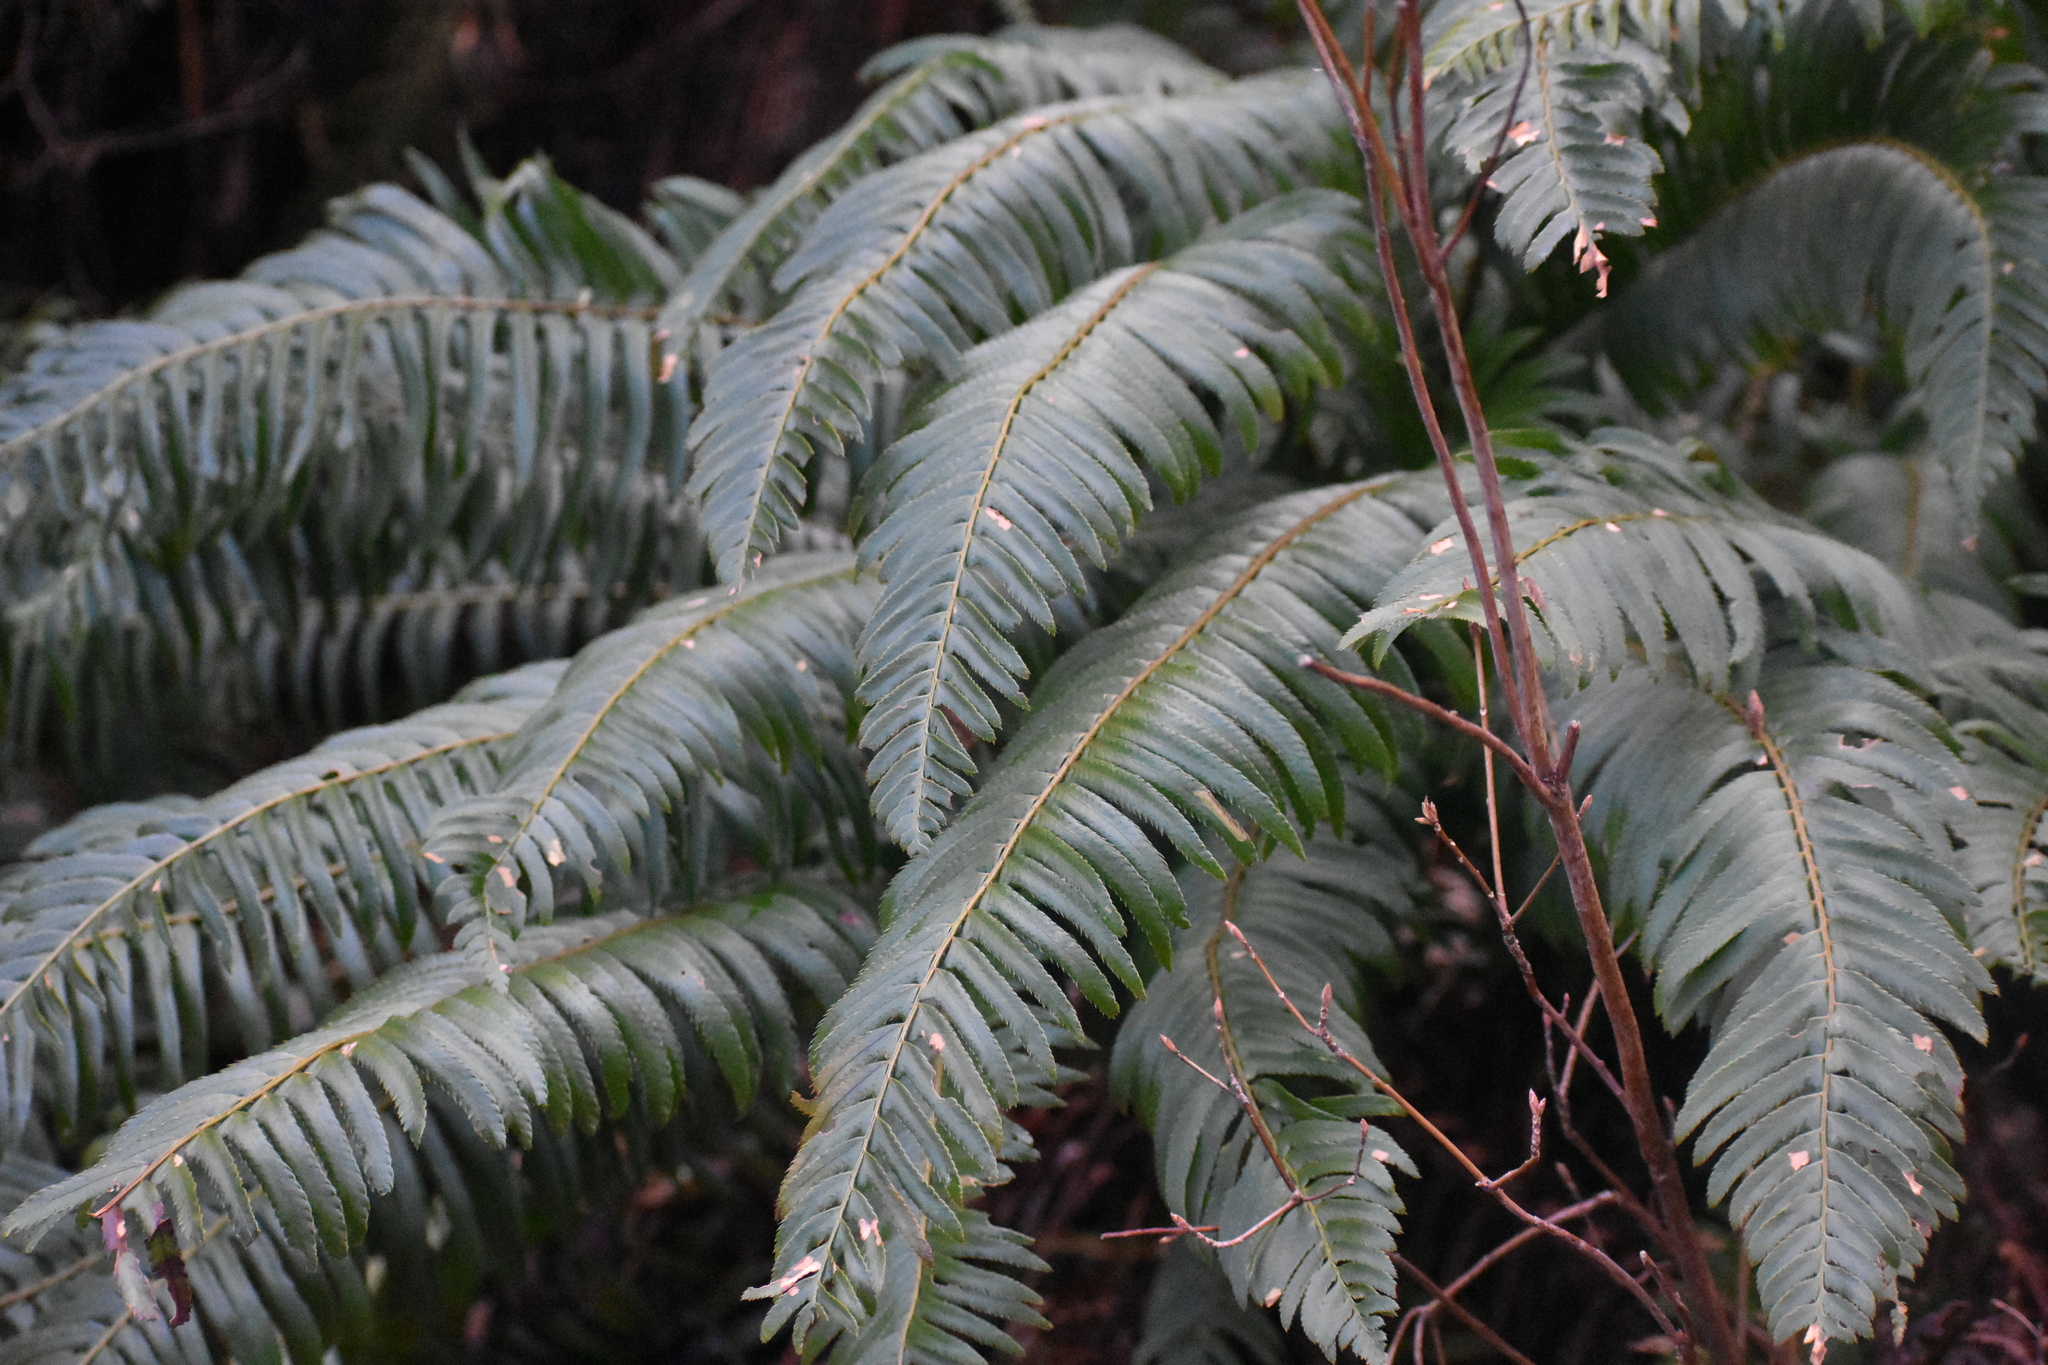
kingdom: Plantae
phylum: Tracheophyta
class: Polypodiopsida
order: Polypodiales
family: Dryopteridaceae
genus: Polystichum
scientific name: Polystichum munitum
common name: Western sword-fern
